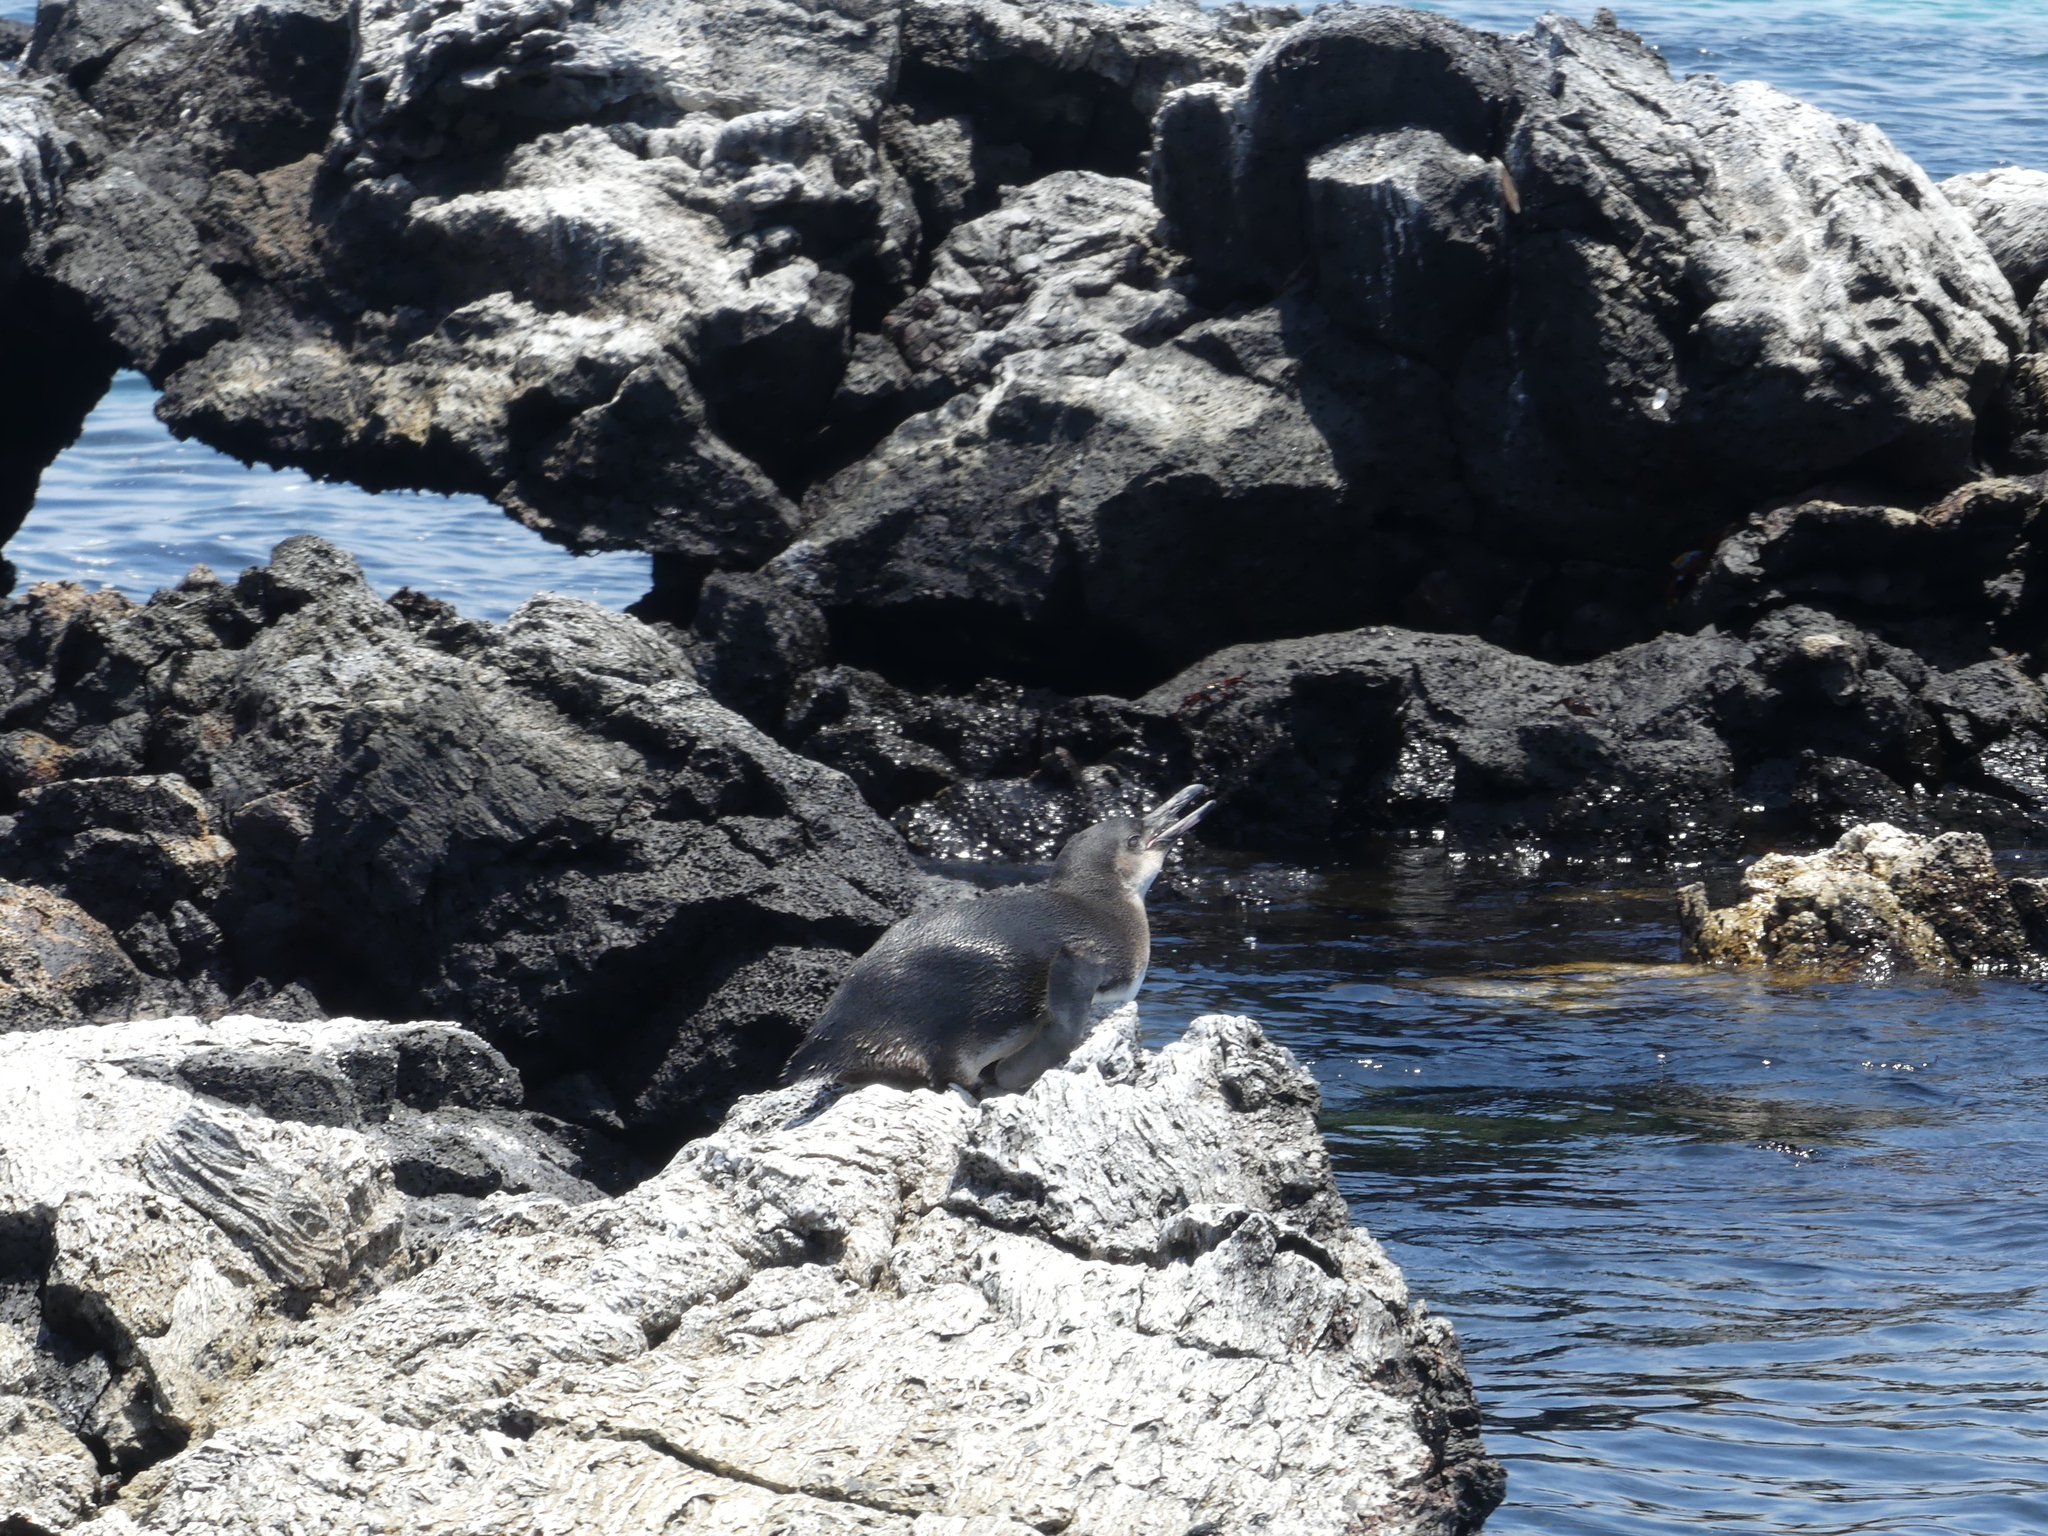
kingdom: Animalia
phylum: Chordata
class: Aves
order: Sphenisciformes
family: Spheniscidae
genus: Spheniscus
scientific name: Spheniscus mendiculus
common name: Galapagos penguin
